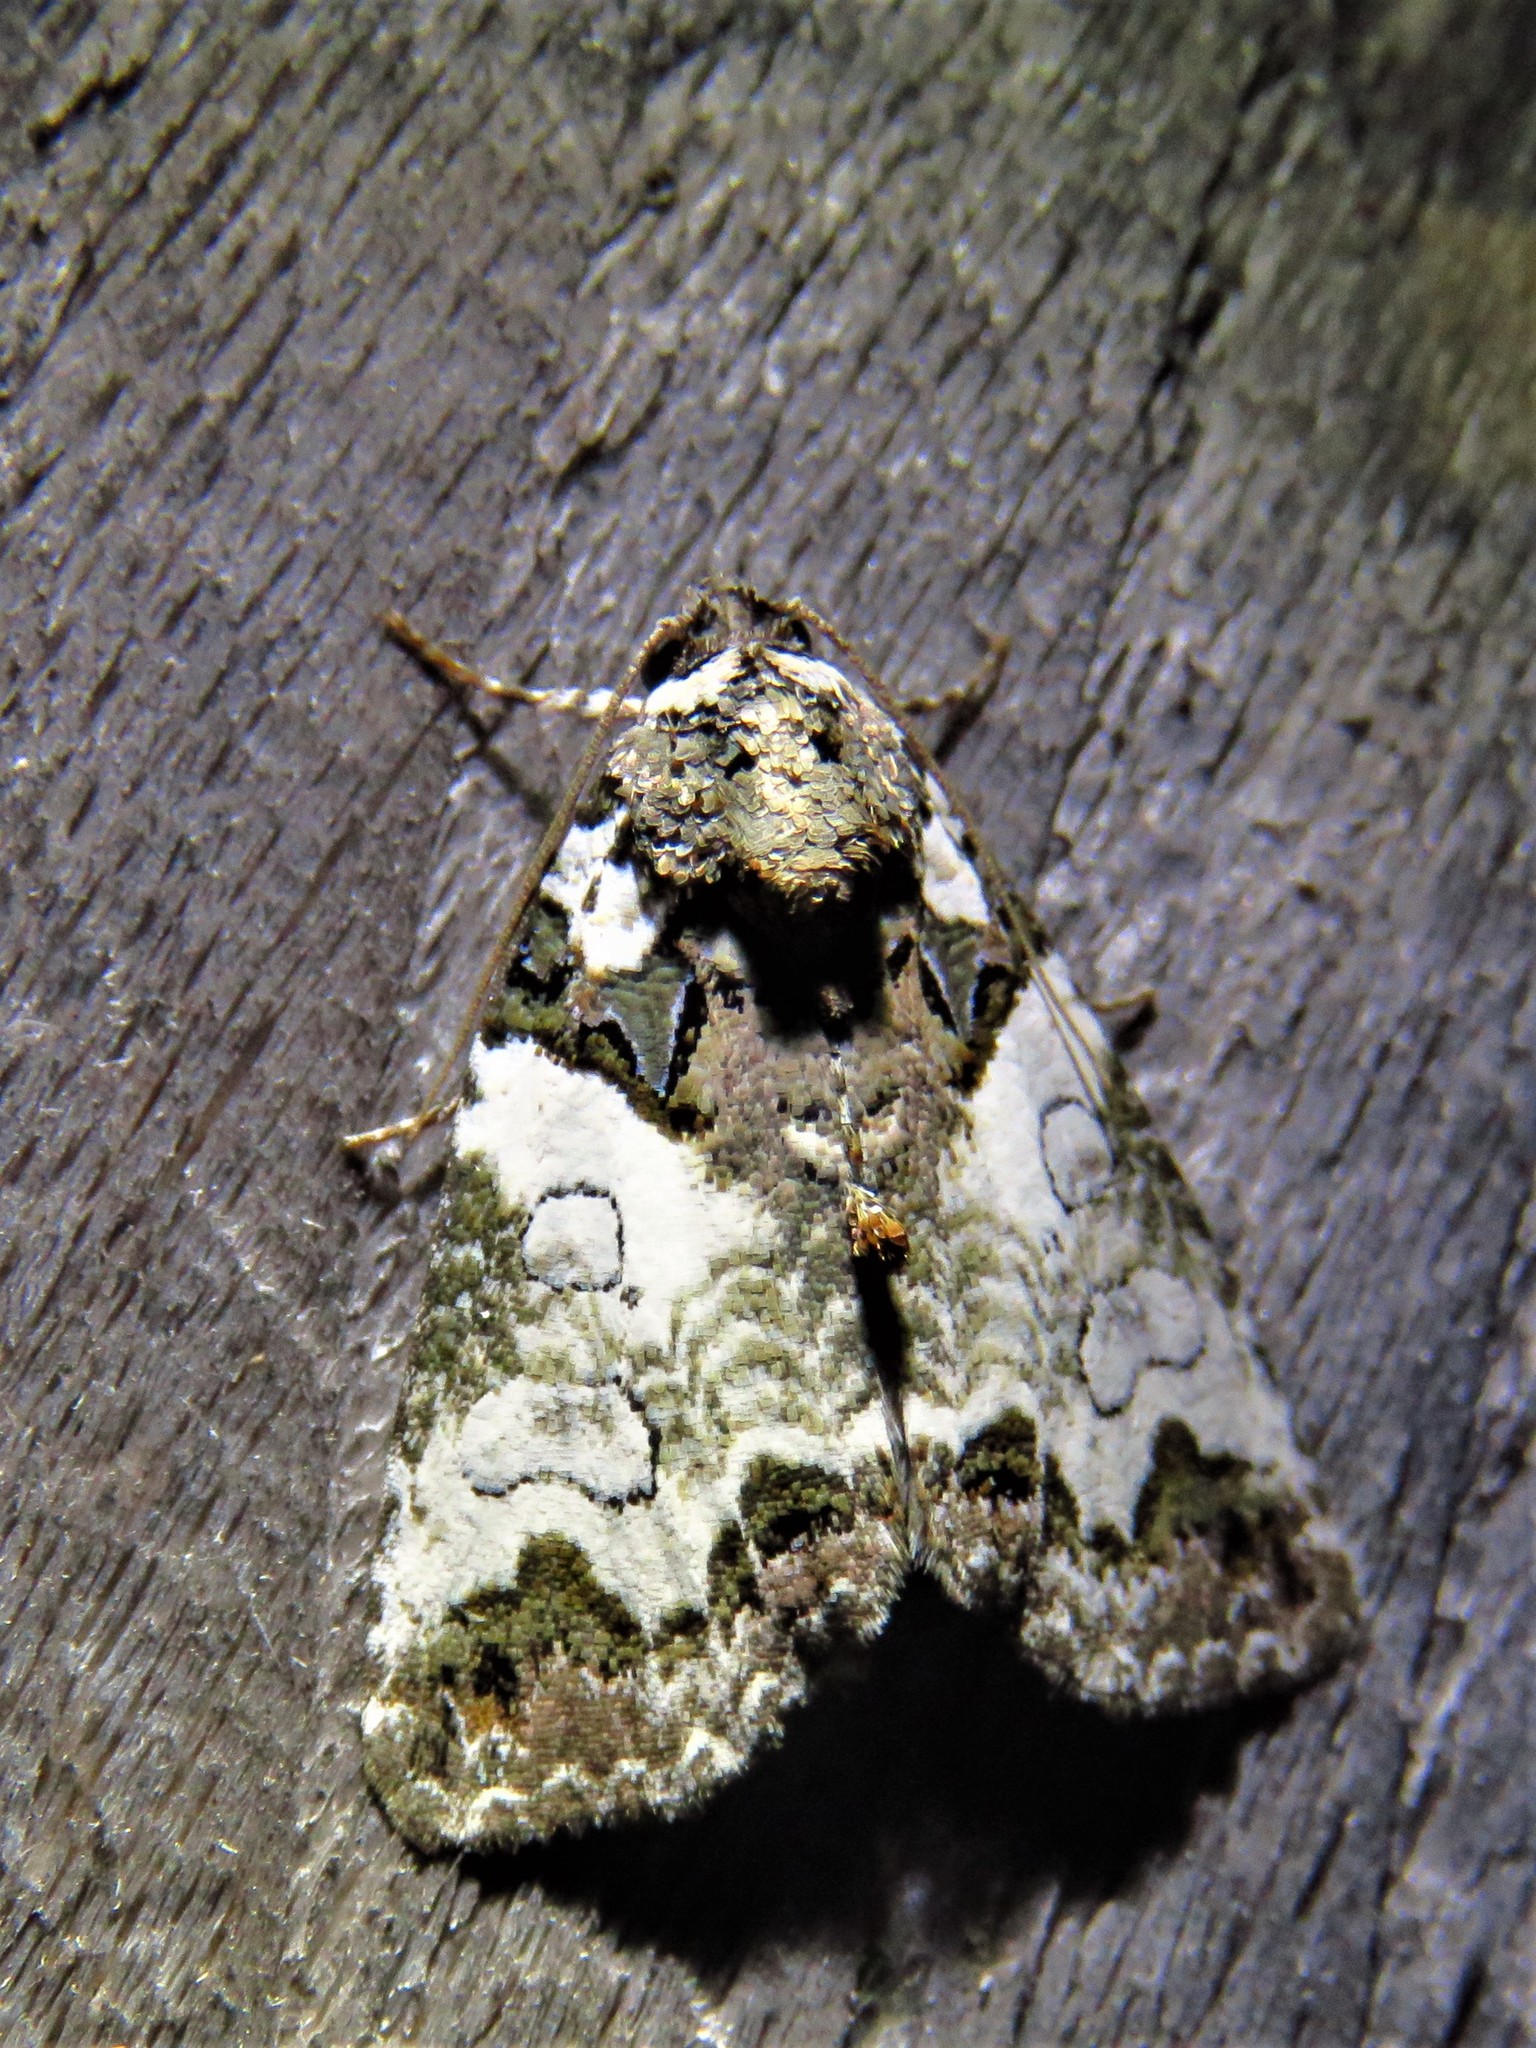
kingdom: Animalia
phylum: Arthropoda
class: Insecta
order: Lepidoptera
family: Noctuidae
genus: Cerma
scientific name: Cerma cerintha
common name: Tufted bird-dropping moth
